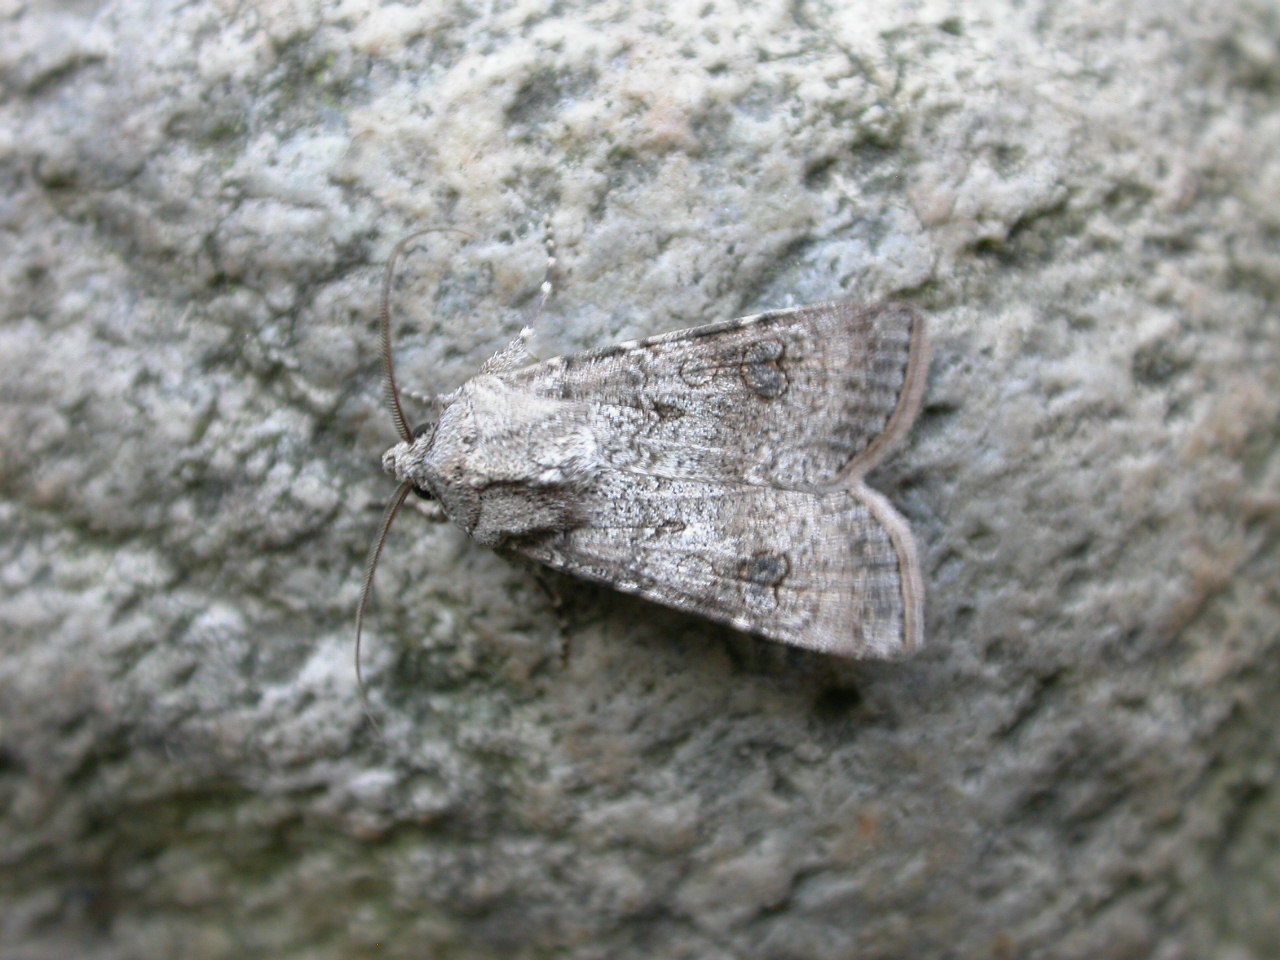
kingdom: Animalia
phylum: Arthropoda
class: Insecta
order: Lepidoptera
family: Noctuidae
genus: Agrotis
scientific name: Agrotis segetum
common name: Turnip moth
